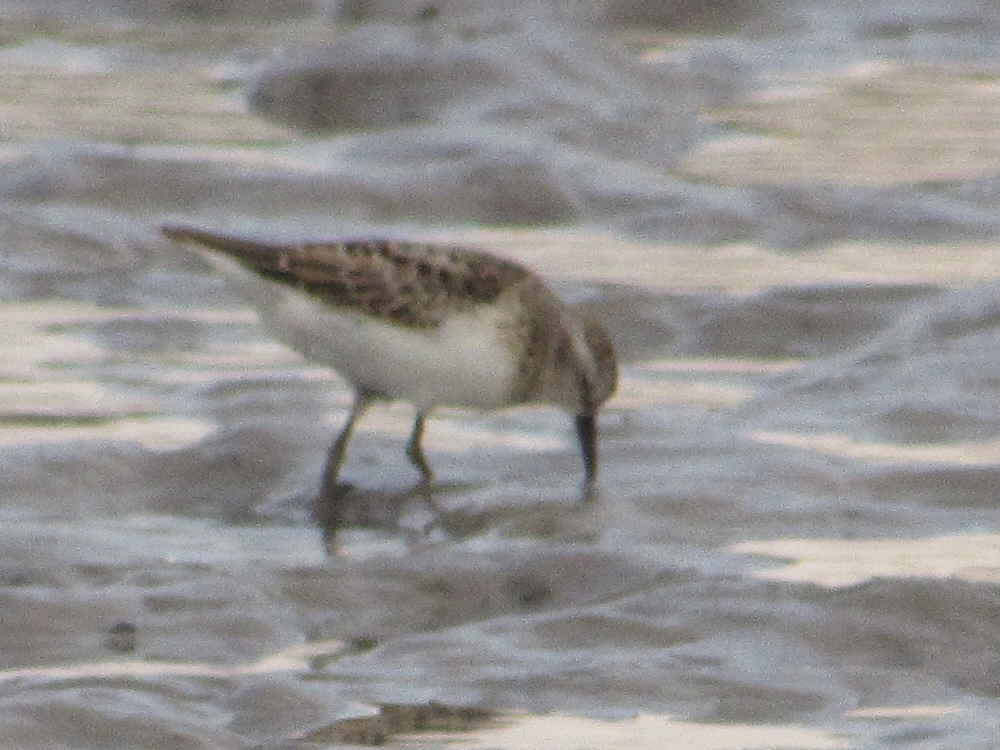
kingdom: Animalia
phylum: Chordata
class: Aves
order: Charadriiformes
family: Scolopacidae
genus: Calidris
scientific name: Calidris minutilla
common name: Least sandpiper
